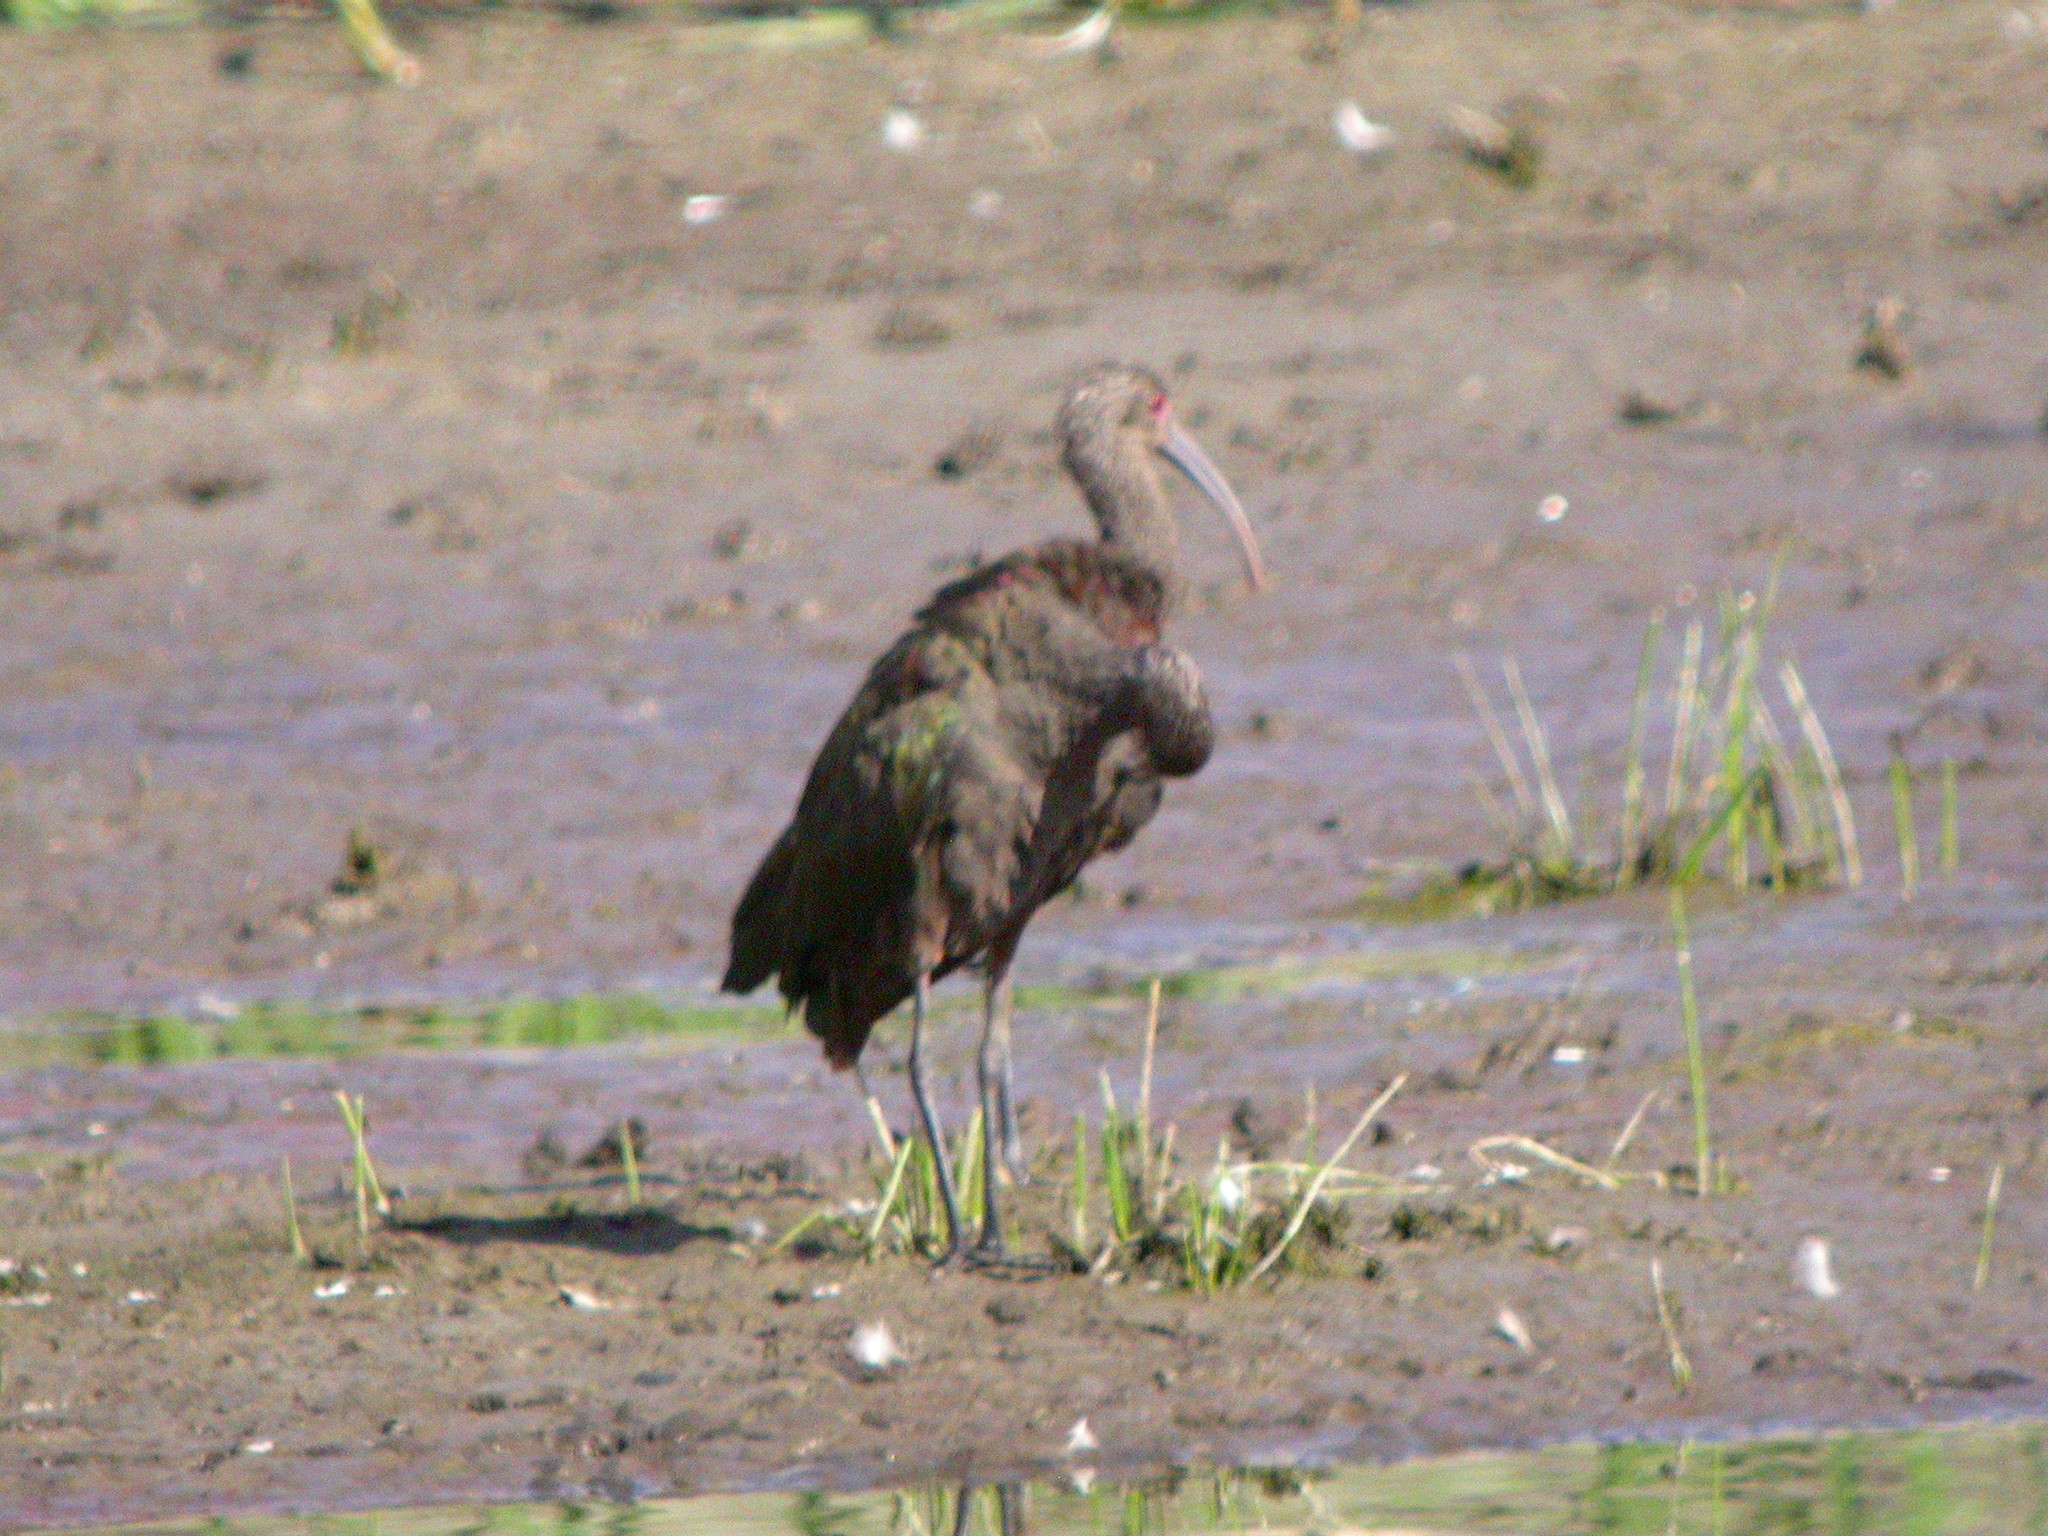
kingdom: Animalia
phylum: Chordata
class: Aves
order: Pelecaniformes
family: Threskiornithidae
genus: Plegadis
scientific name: Plegadis chihi
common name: White-faced ibis
